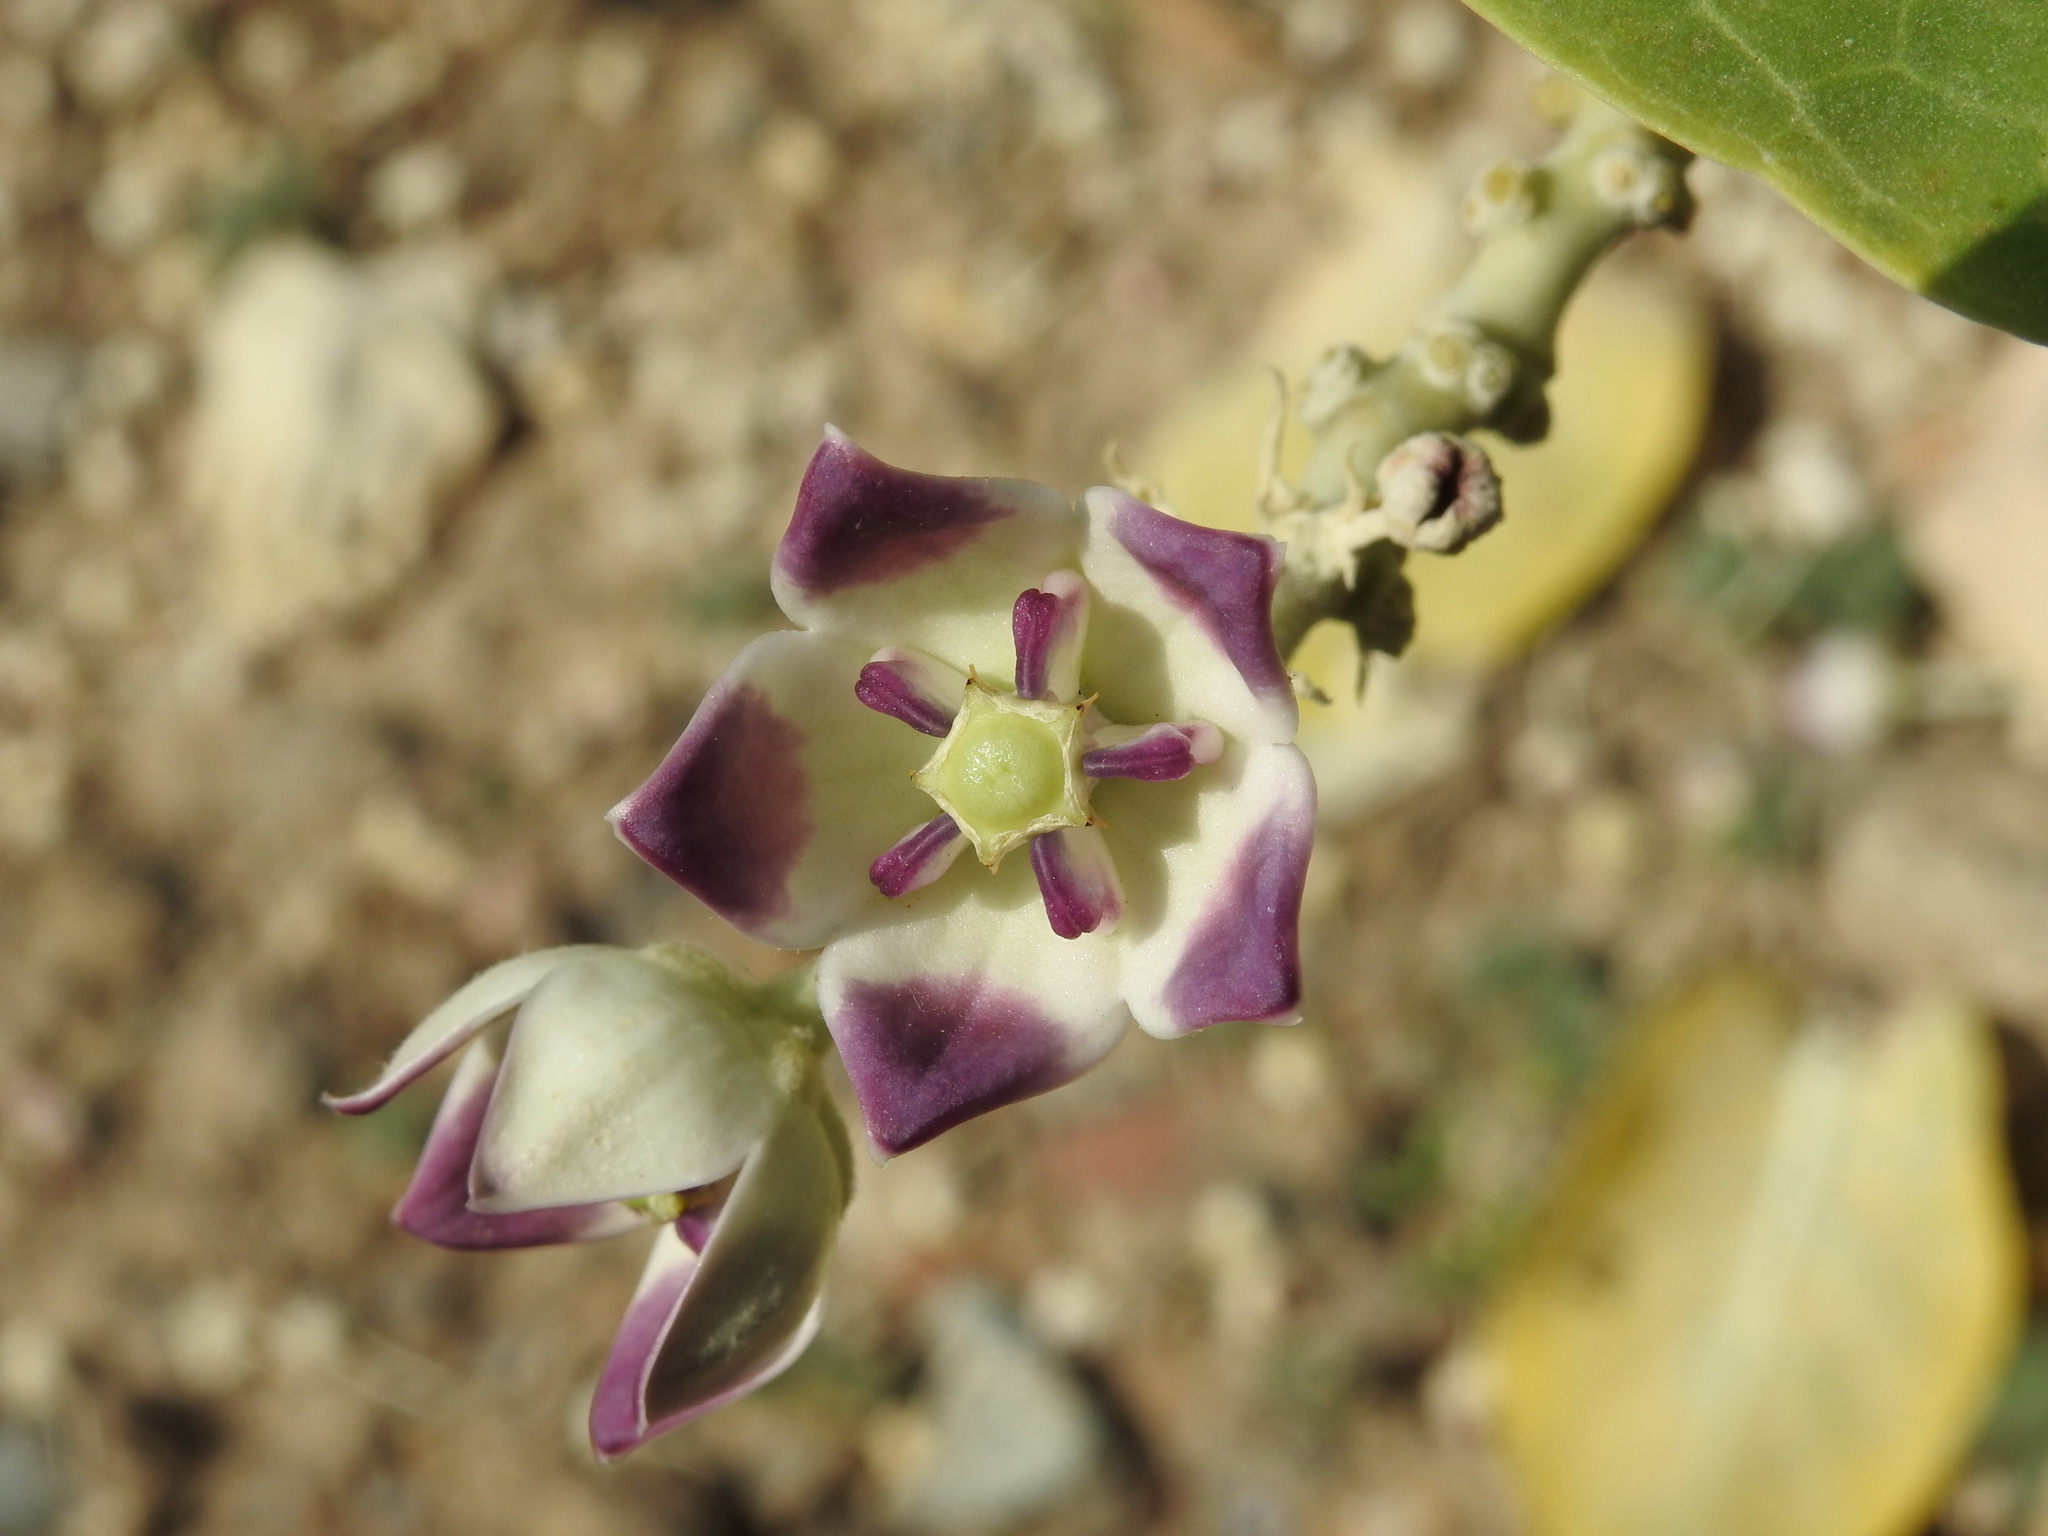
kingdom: Plantae
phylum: Tracheophyta
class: Magnoliopsida
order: Gentianales
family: Apocynaceae
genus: Calotropis
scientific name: Calotropis procera
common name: Roostertree
